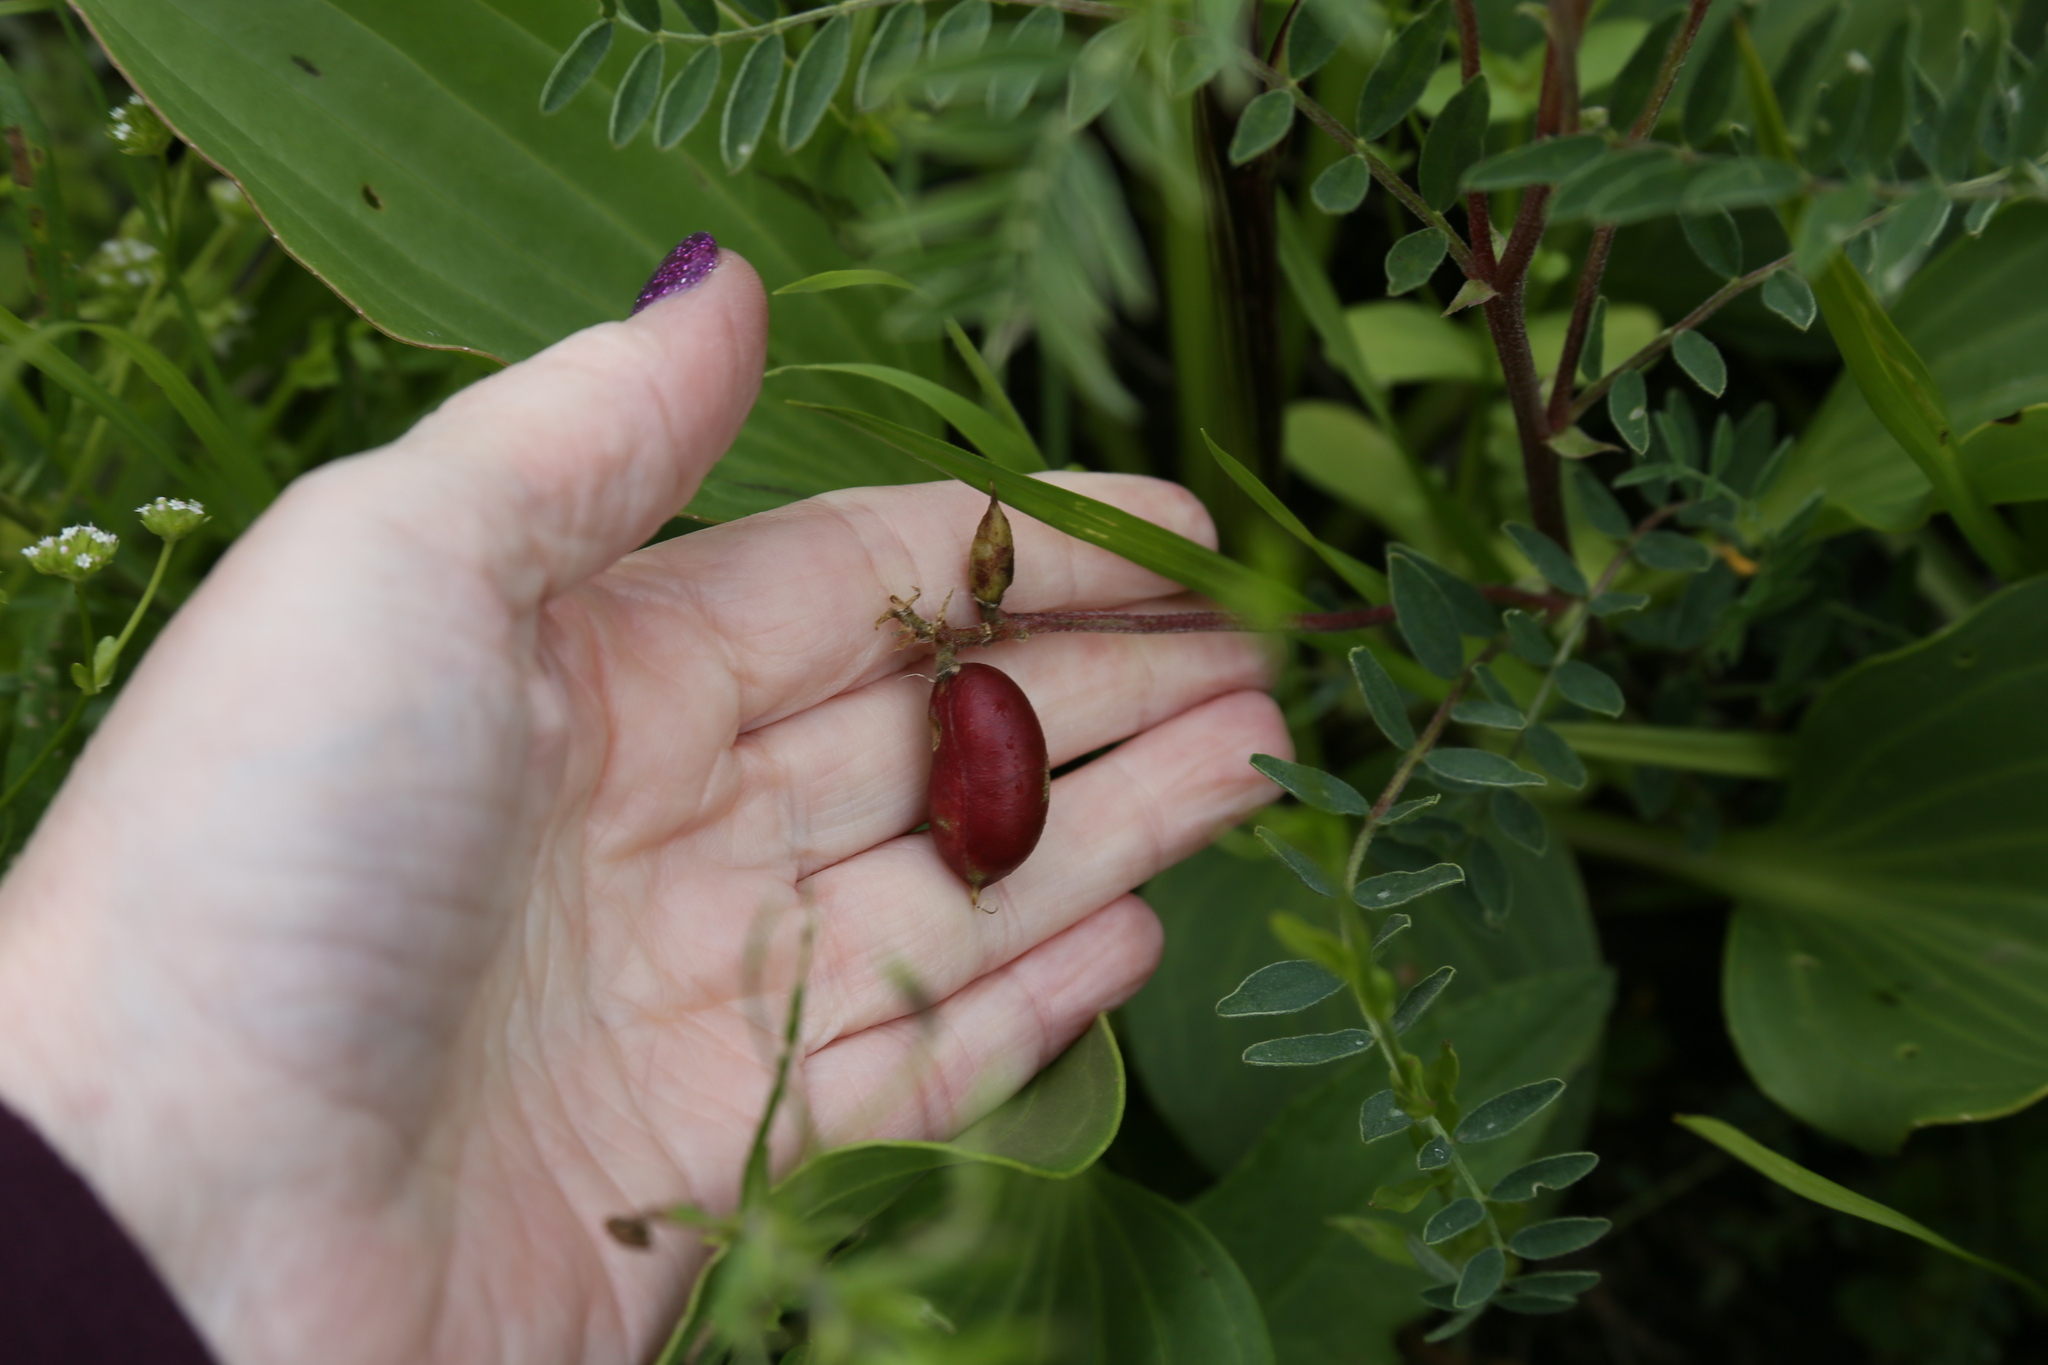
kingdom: Plantae
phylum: Tracheophyta
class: Magnoliopsida
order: Fabales
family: Fabaceae
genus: Astragalus
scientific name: Astragalus crassicarpus
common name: Ground-plum milk-vetch
